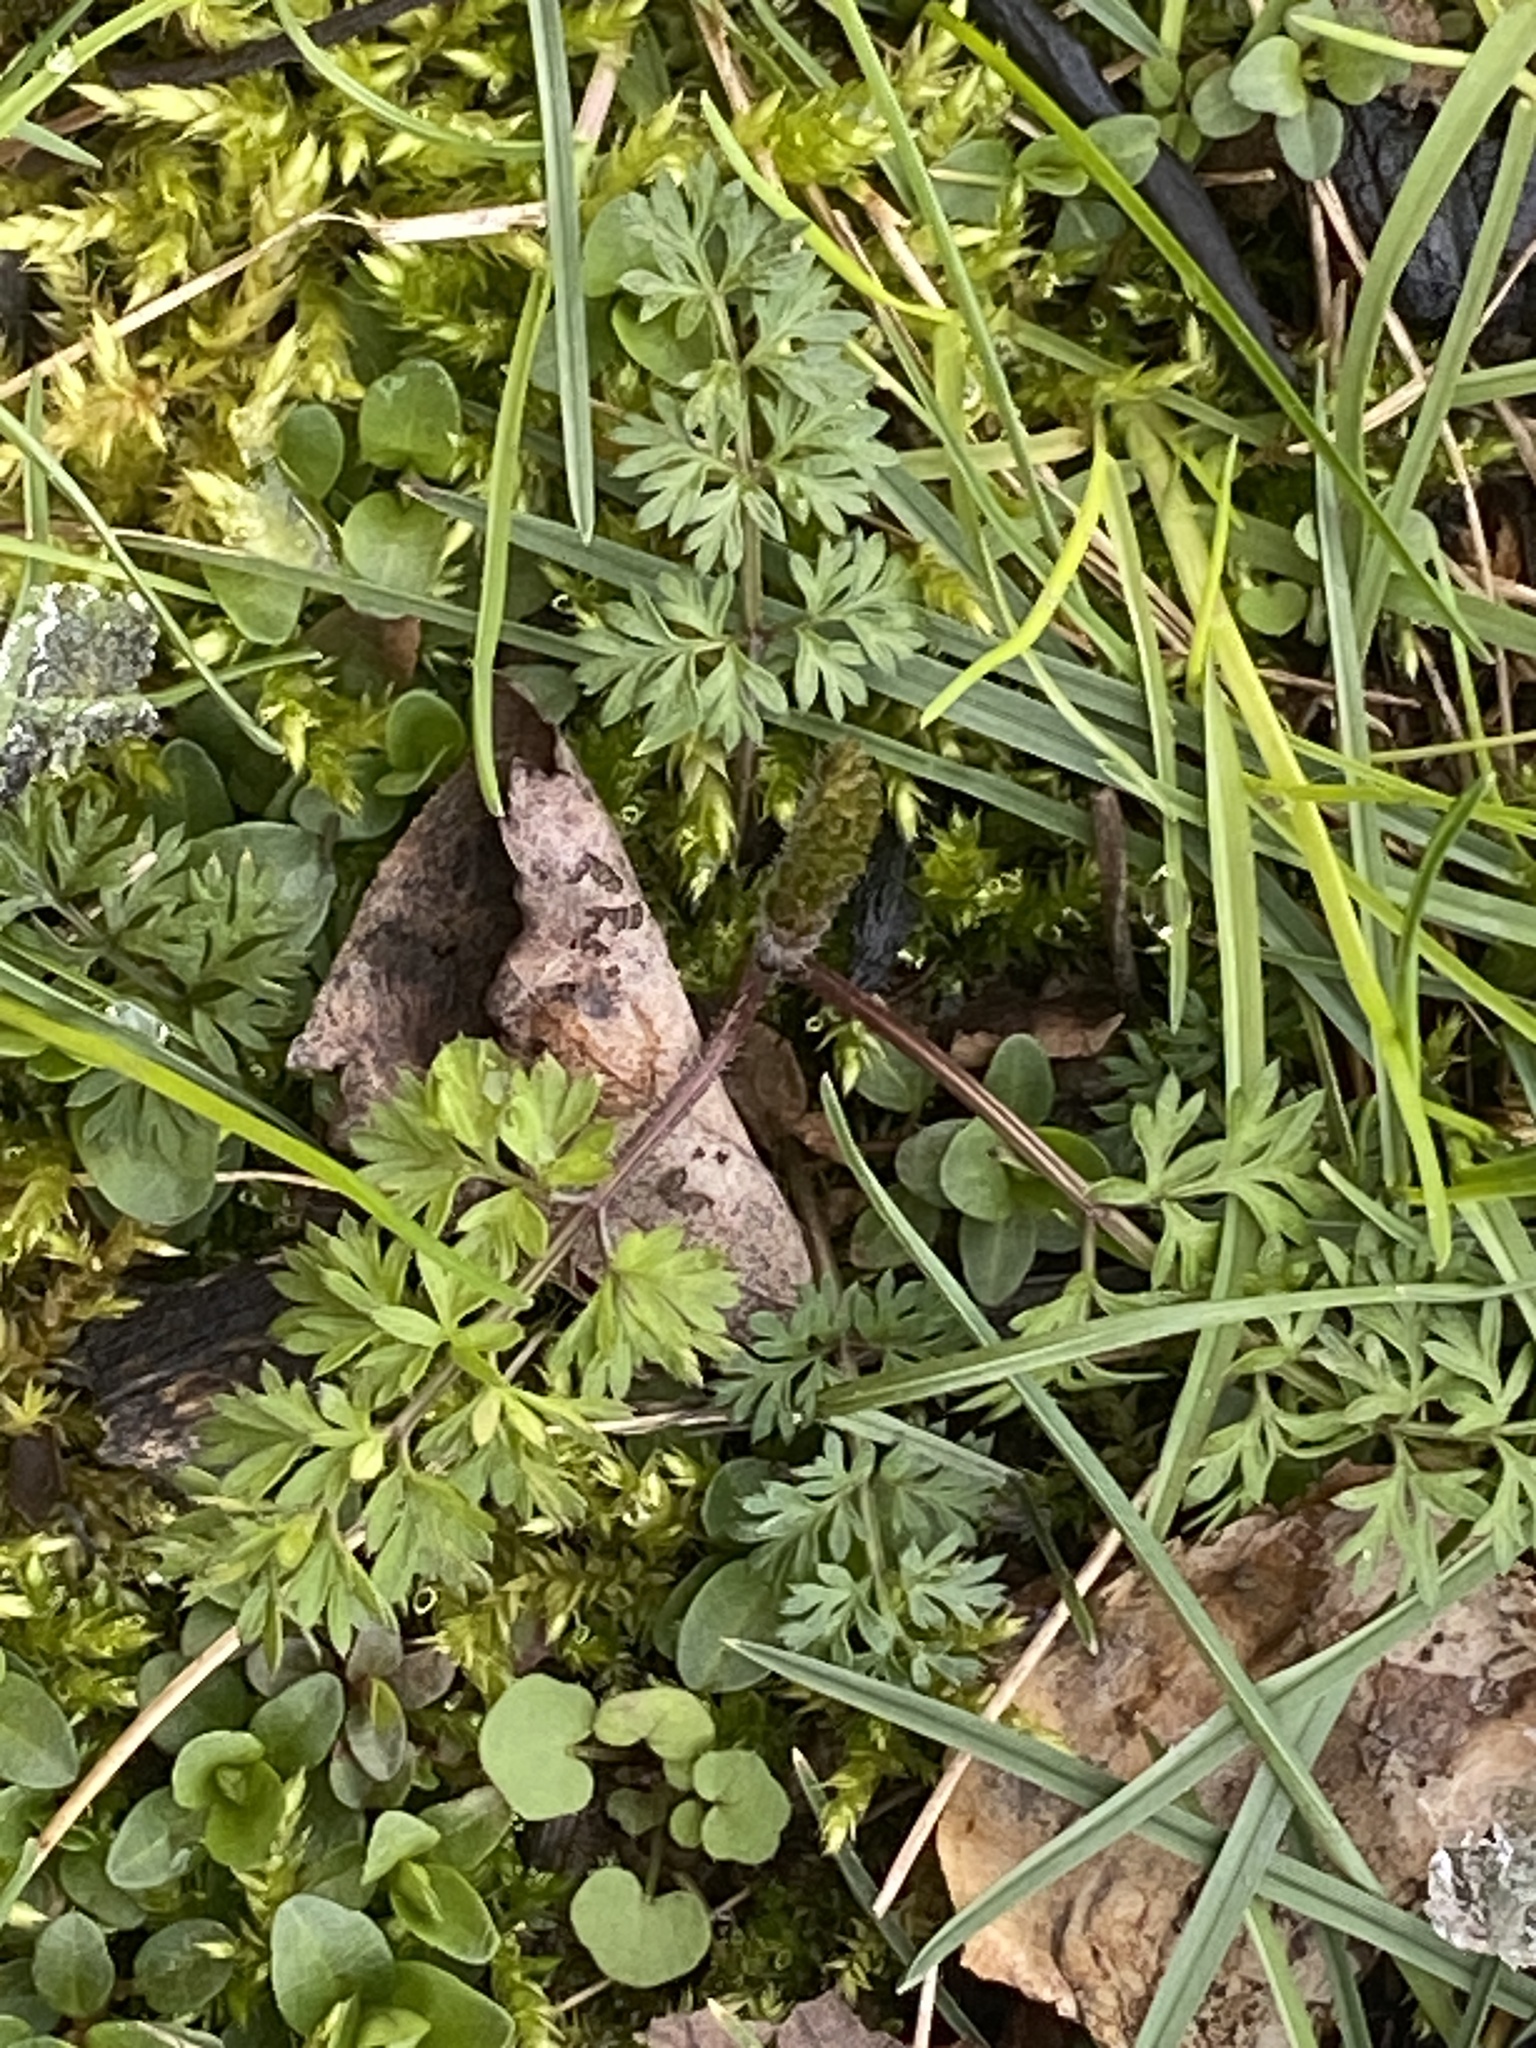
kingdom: Plantae
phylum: Tracheophyta
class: Magnoliopsida
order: Apiales
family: Apiaceae
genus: Daucus
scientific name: Daucus carota
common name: Wild carrot
